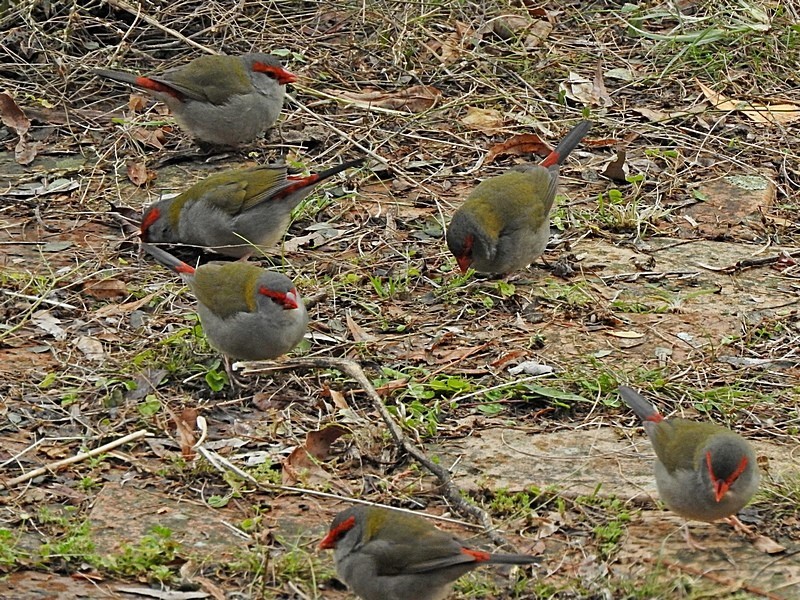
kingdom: Animalia
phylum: Chordata
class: Aves
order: Passeriformes
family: Estrildidae
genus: Neochmia
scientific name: Neochmia temporalis
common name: Red-browed finch
